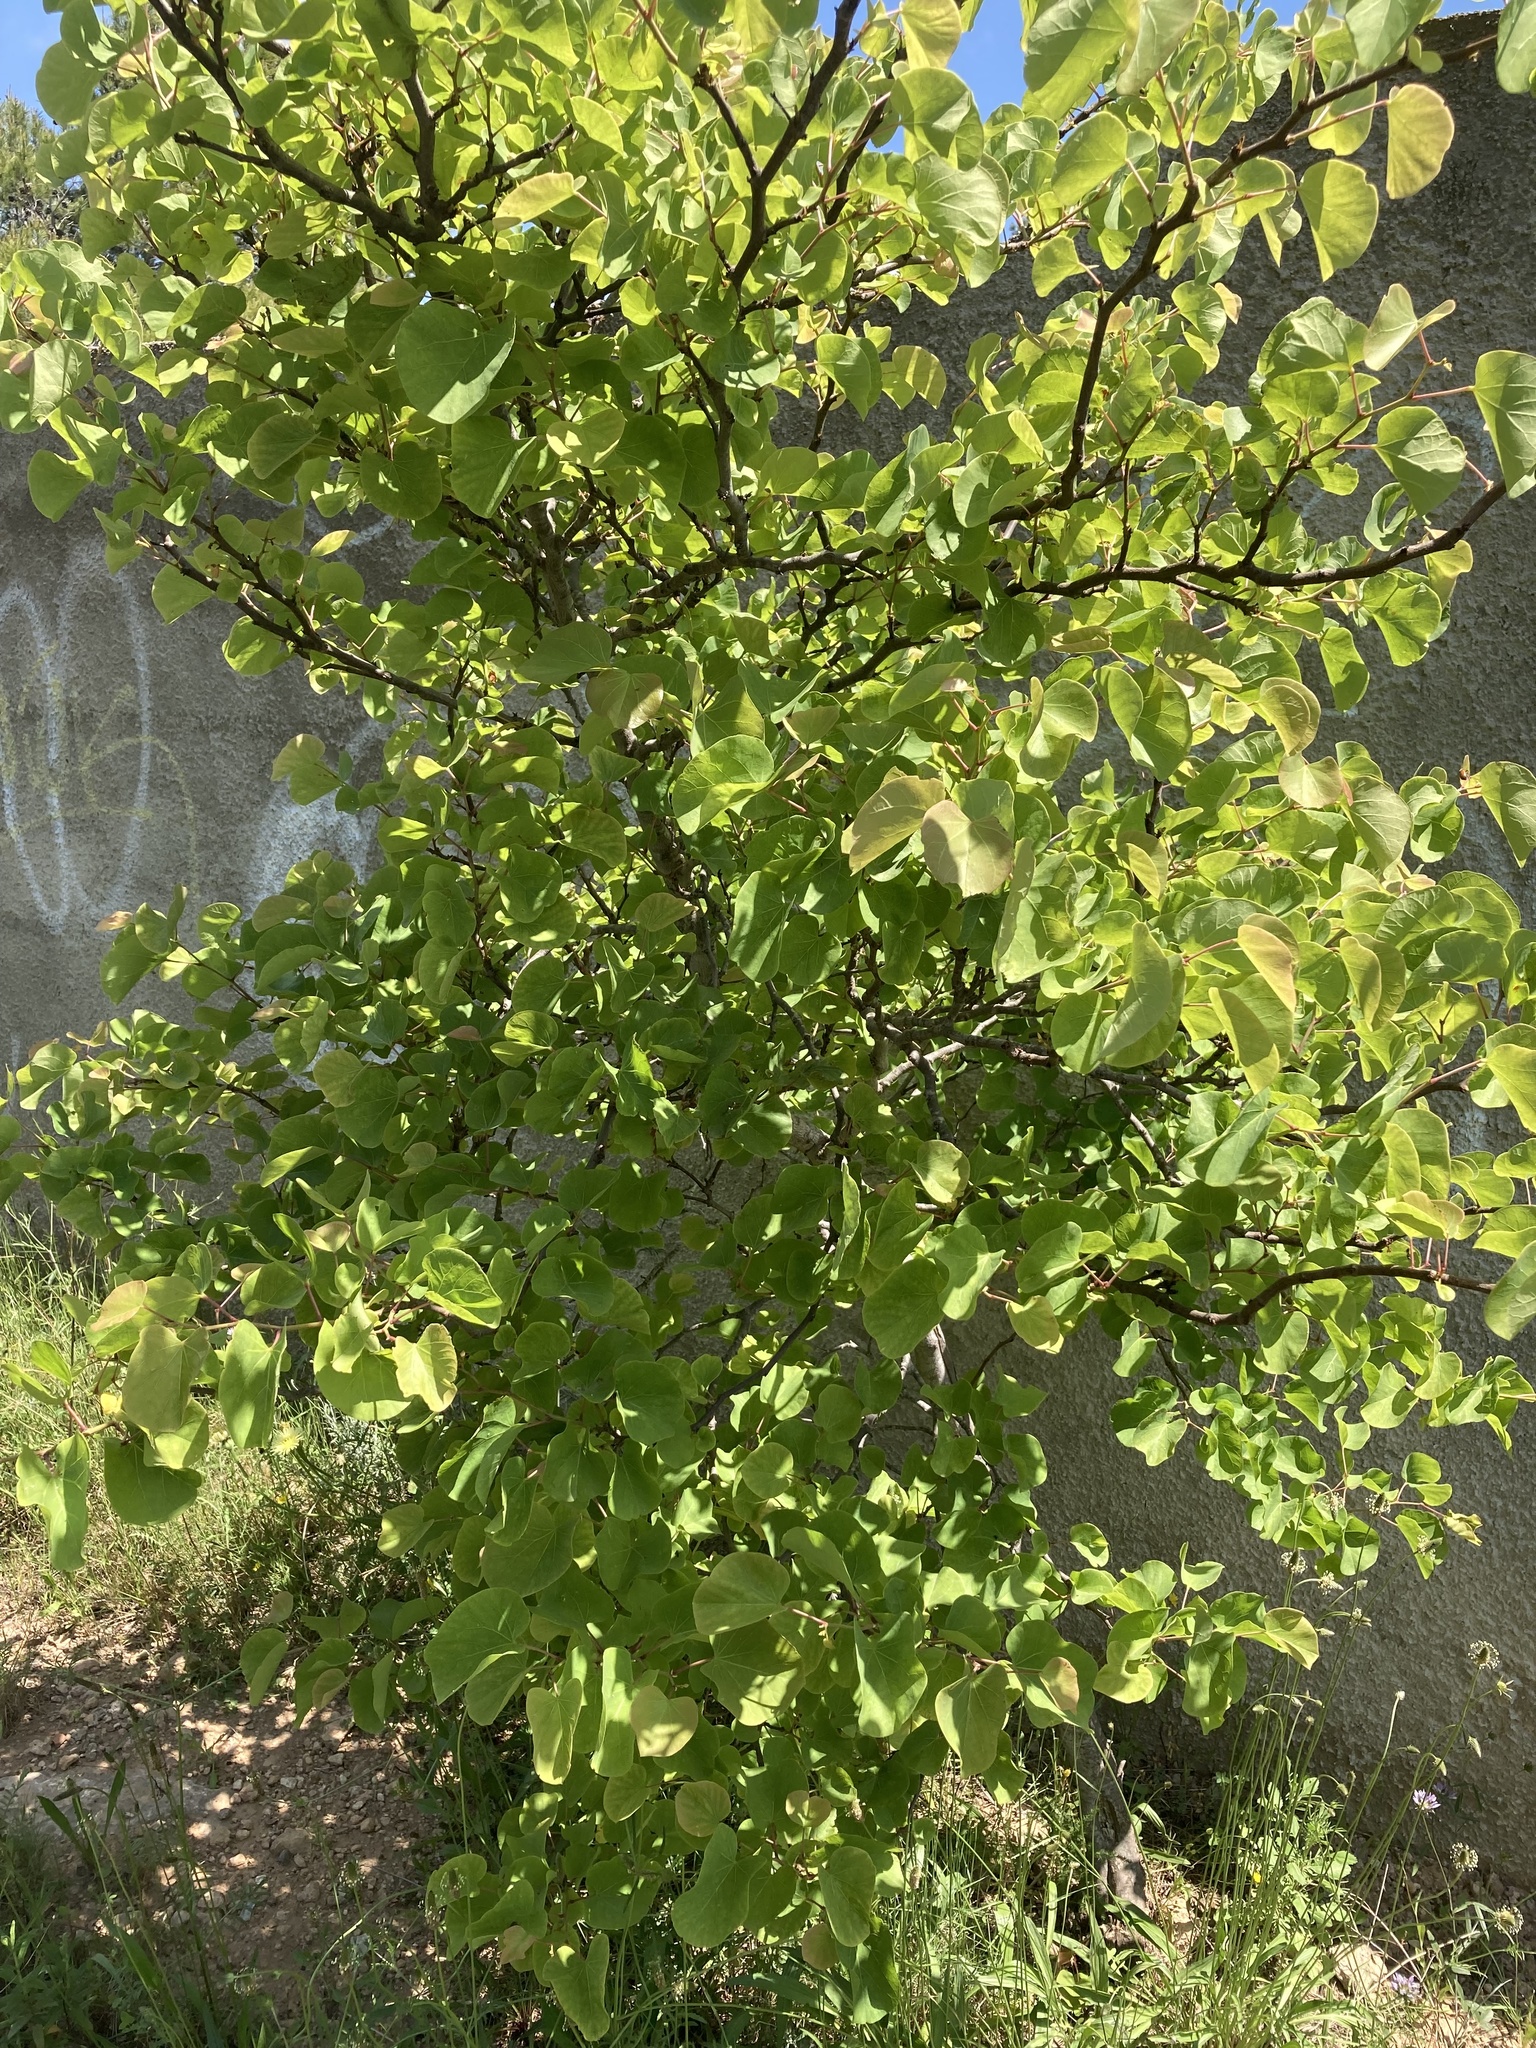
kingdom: Plantae
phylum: Tracheophyta
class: Magnoliopsida
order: Fabales
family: Fabaceae
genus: Cercis
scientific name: Cercis siliquastrum
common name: Judas tree
